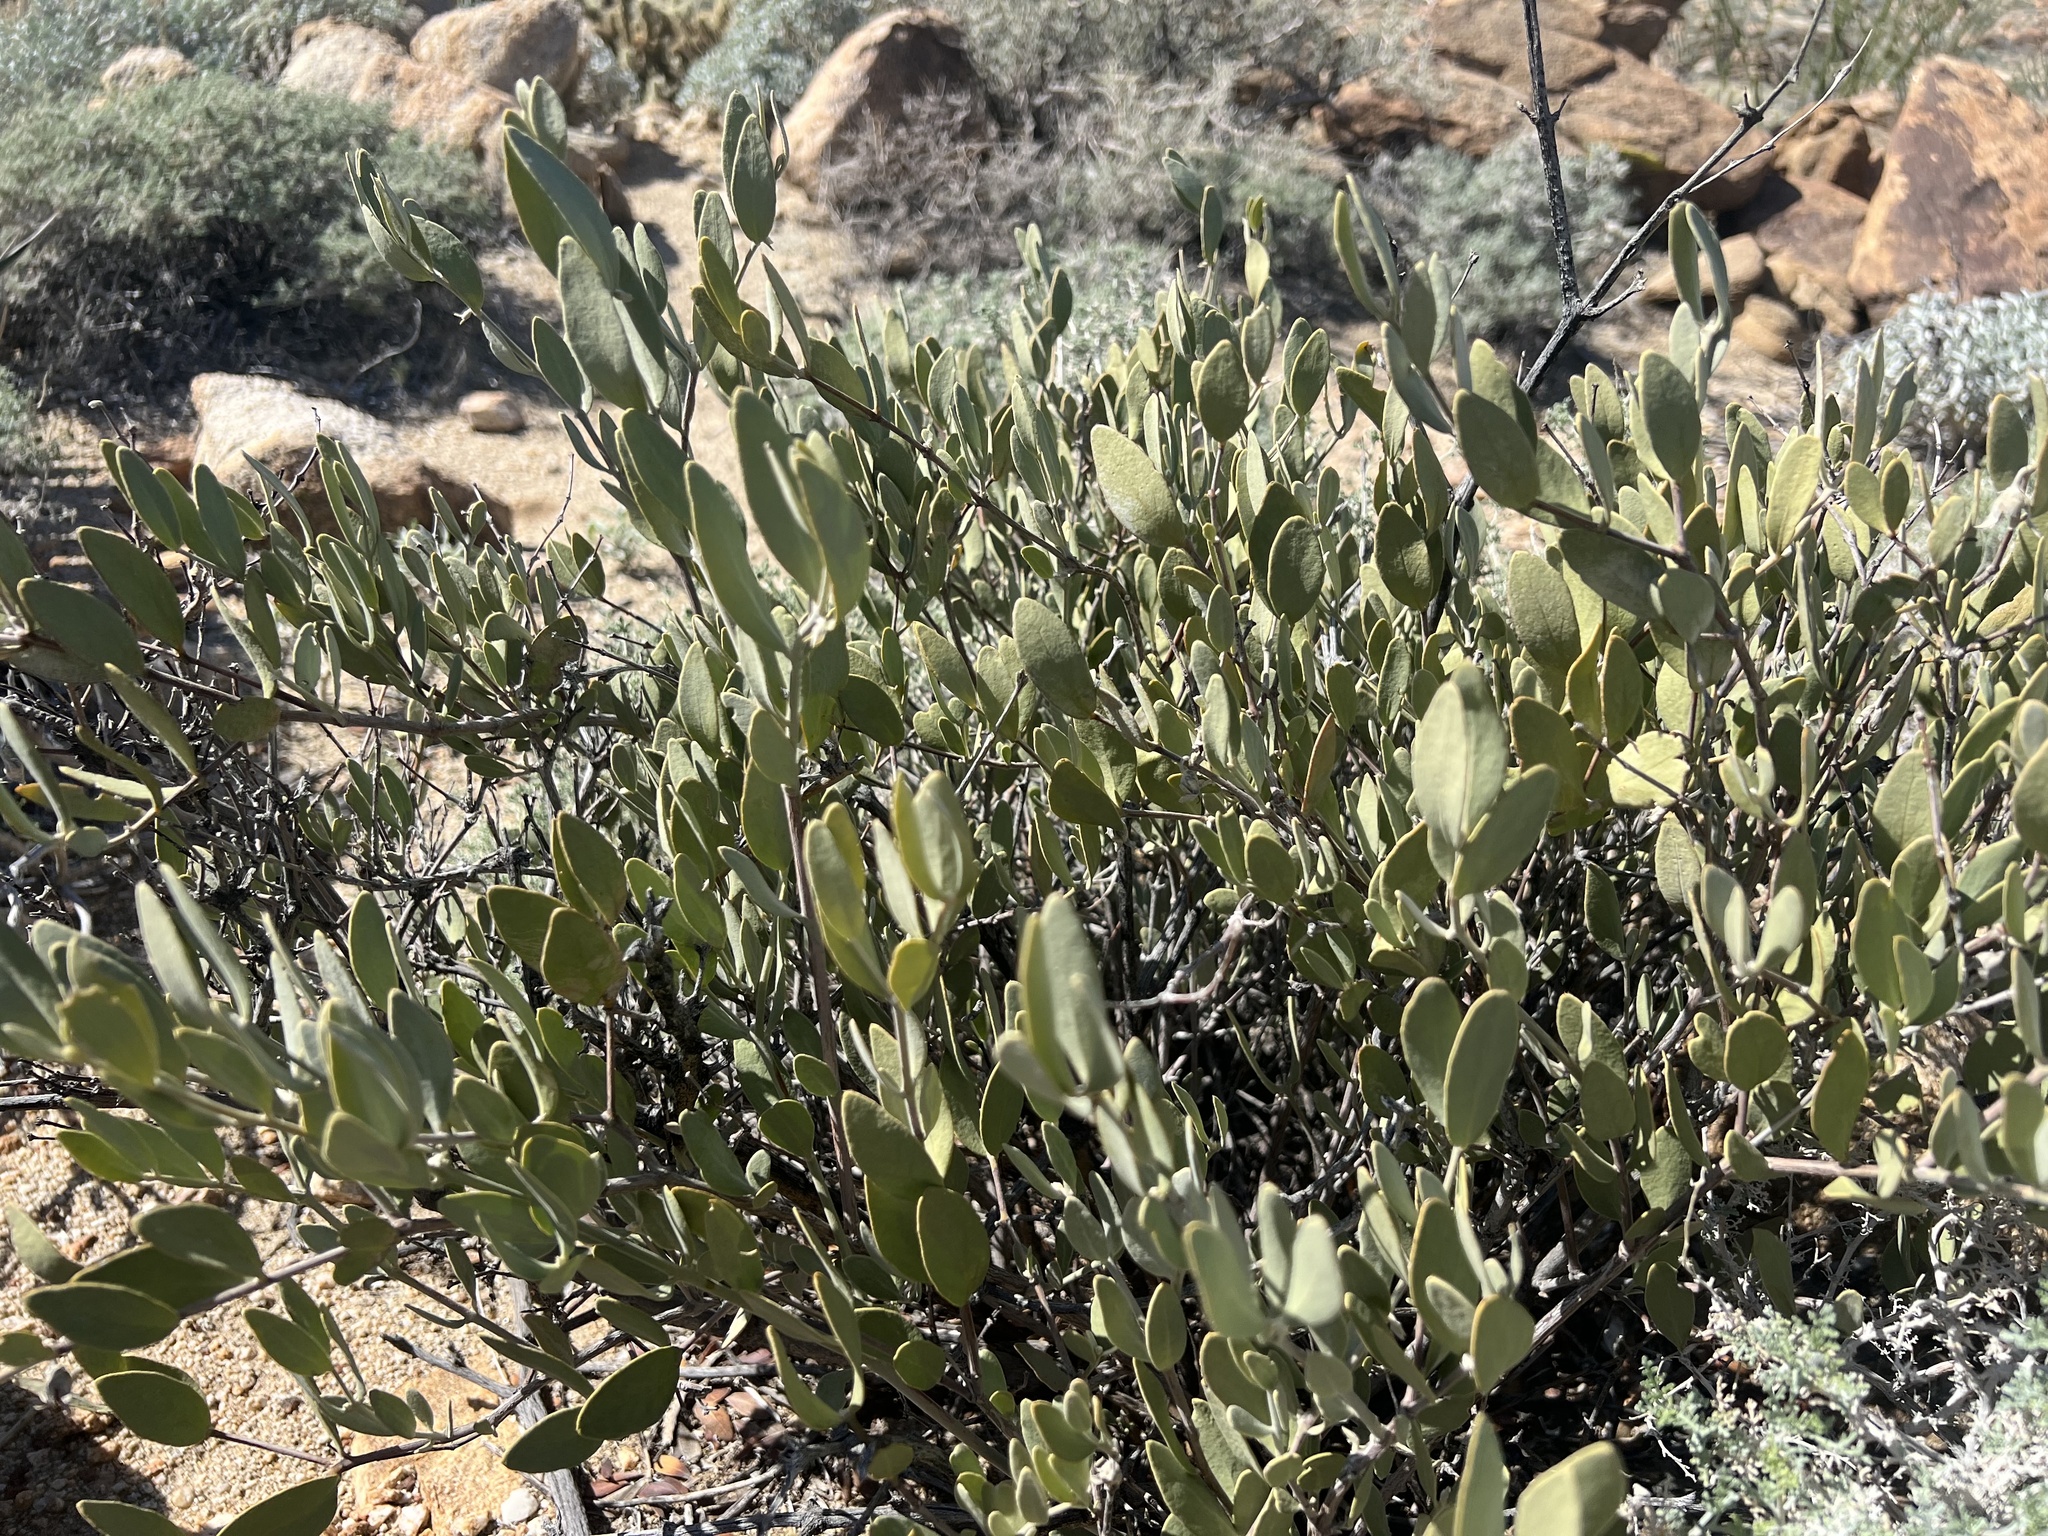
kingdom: Plantae
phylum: Tracheophyta
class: Magnoliopsida
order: Caryophyllales
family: Simmondsiaceae
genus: Simmondsia
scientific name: Simmondsia chinensis
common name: Jojoba
